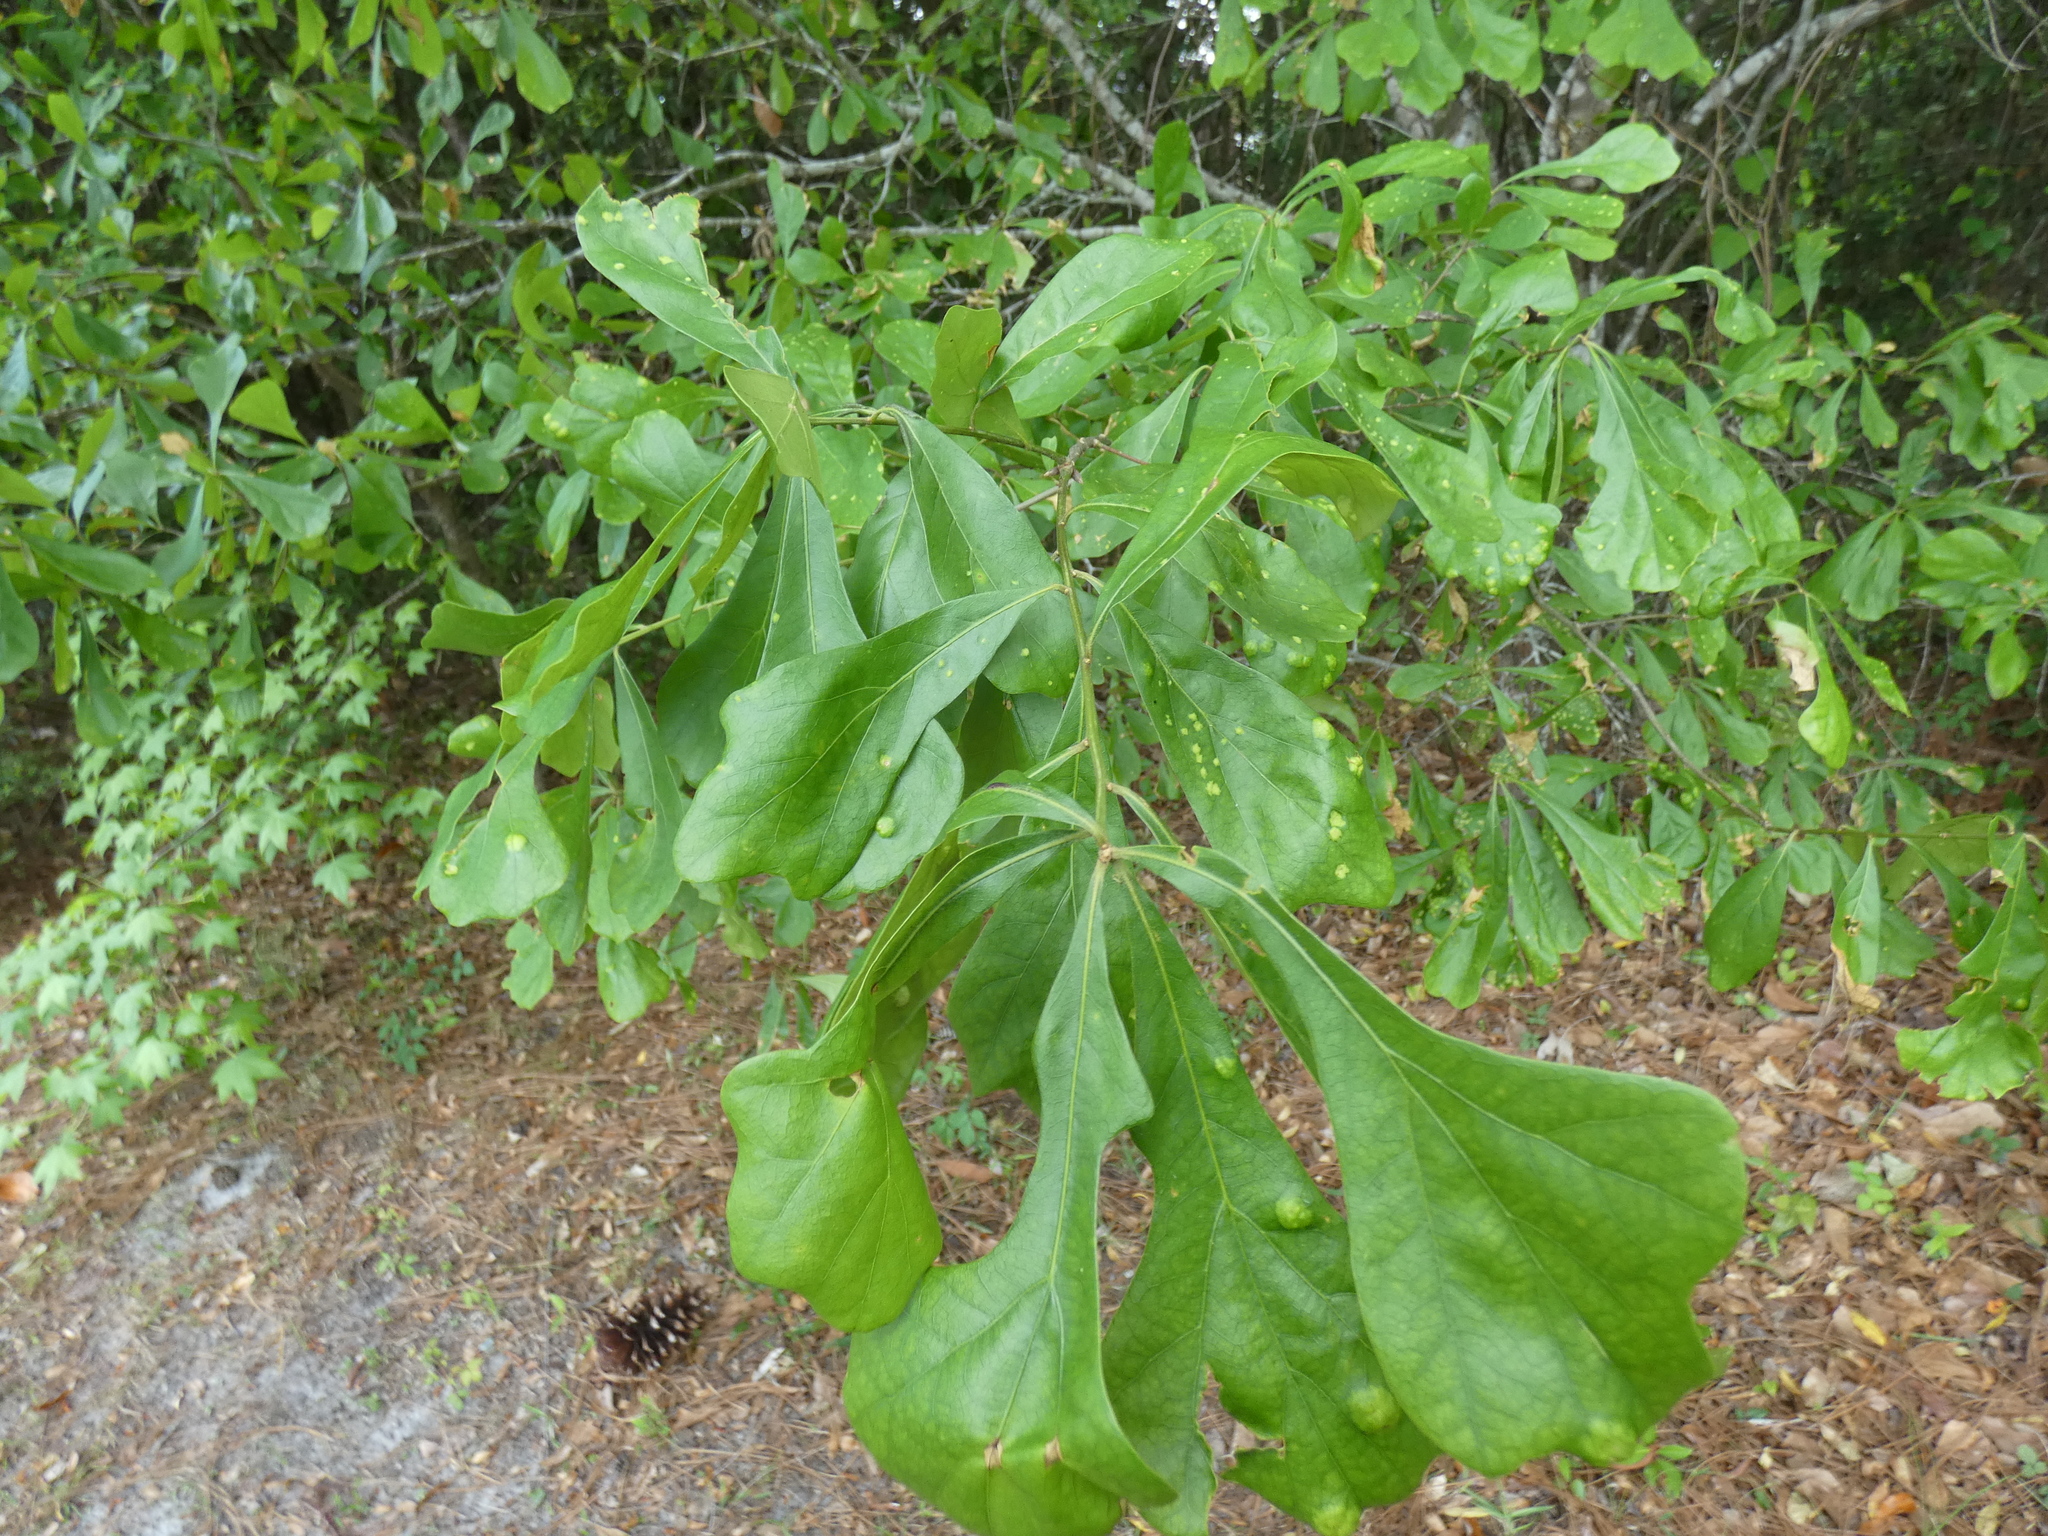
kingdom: Plantae
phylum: Tracheophyta
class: Magnoliopsida
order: Fagales
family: Fagaceae
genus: Quercus
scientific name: Quercus nigra
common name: Water oak
